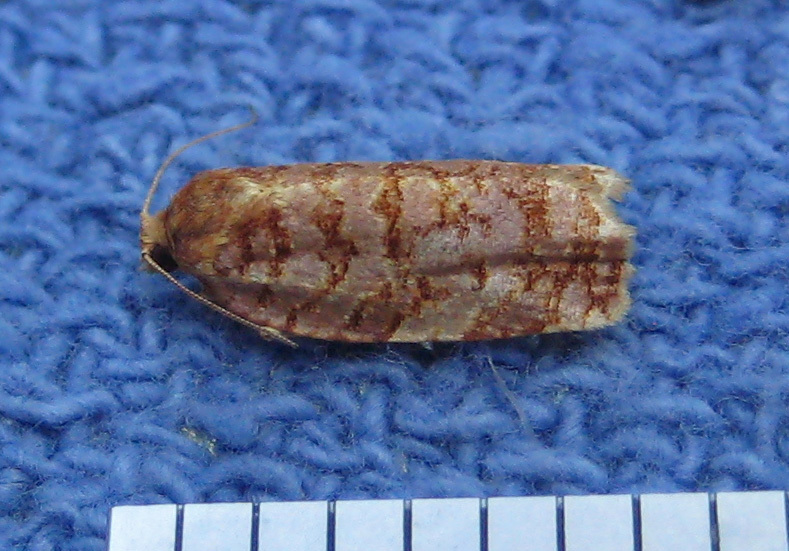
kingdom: Animalia
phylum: Arthropoda
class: Insecta
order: Lepidoptera
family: Tortricidae
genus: Archips
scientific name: Archips georgiana
